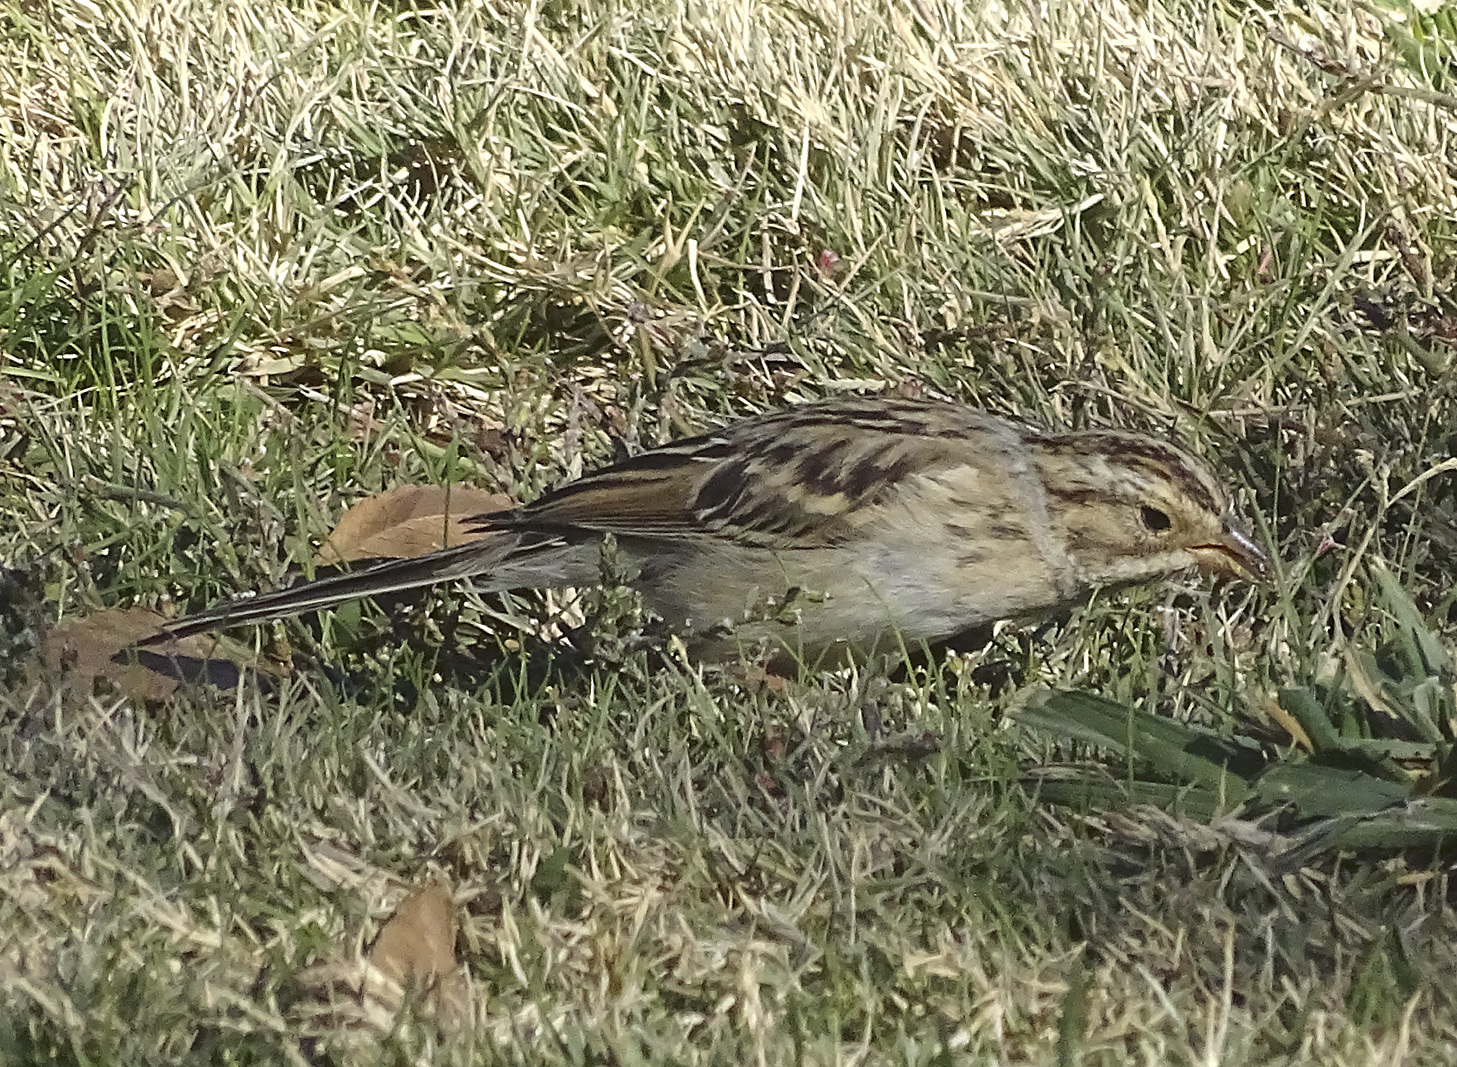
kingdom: Animalia
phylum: Chordata
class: Aves
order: Passeriformes
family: Passerellidae
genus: Spizella
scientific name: Spizella pallida
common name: Clay-colored sparrow
